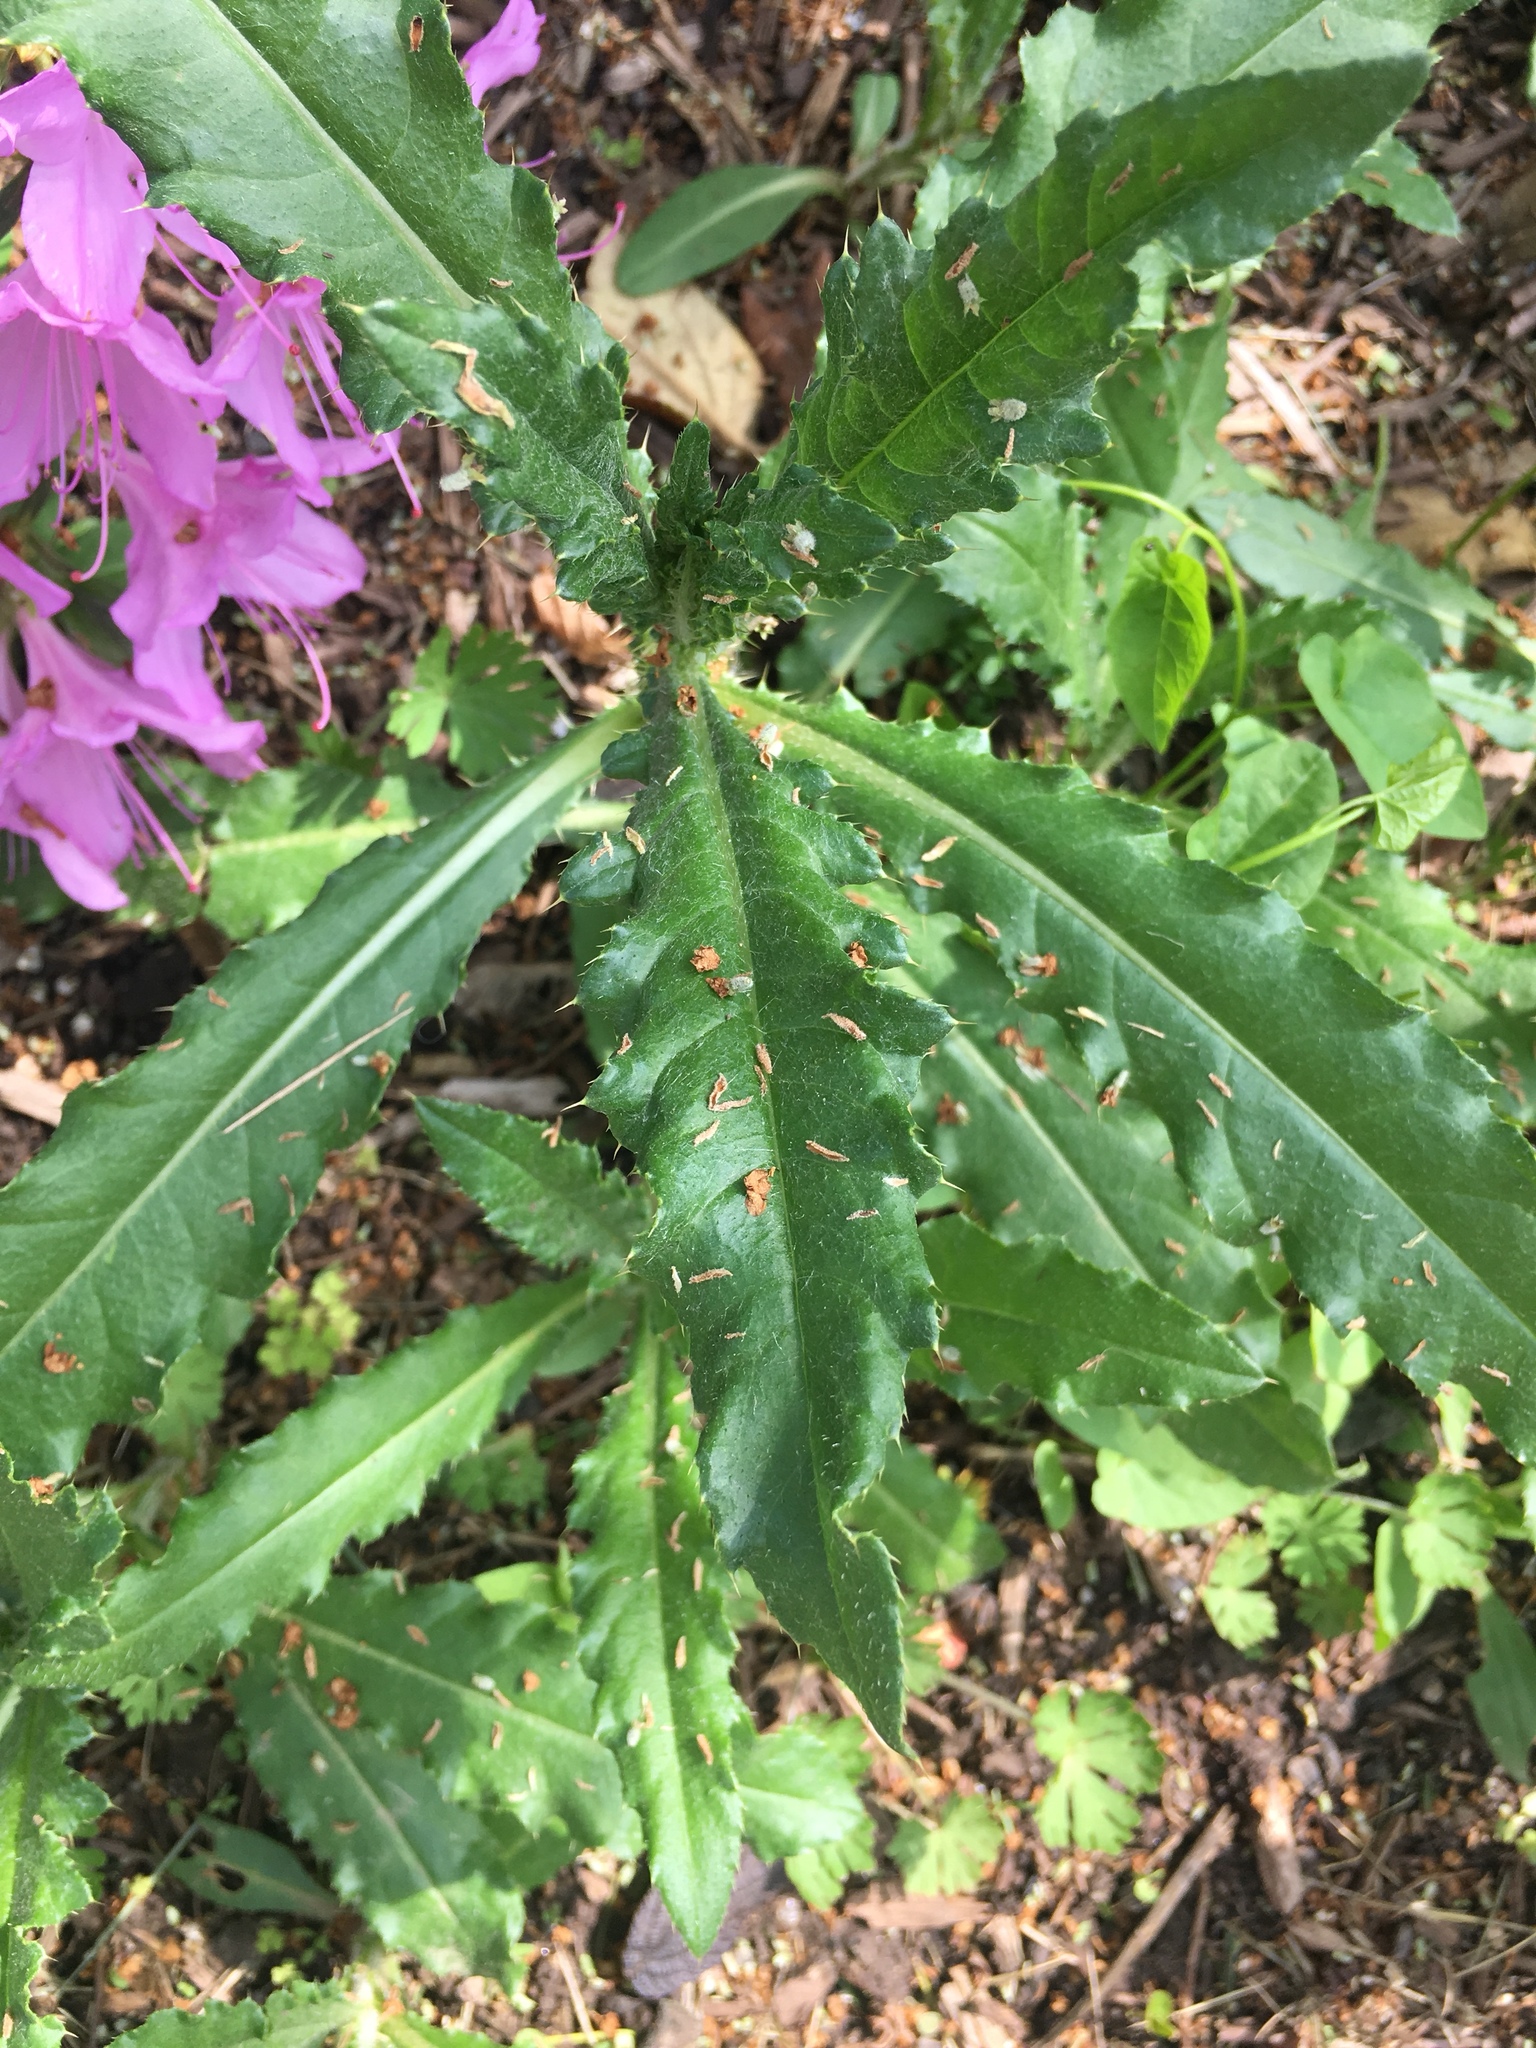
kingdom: Plantae
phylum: Tracheophyta
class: Magnoliopsida
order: Asterales
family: Asteraceae
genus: Cirsium
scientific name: Cirsium arvense
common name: Creeping thistle
